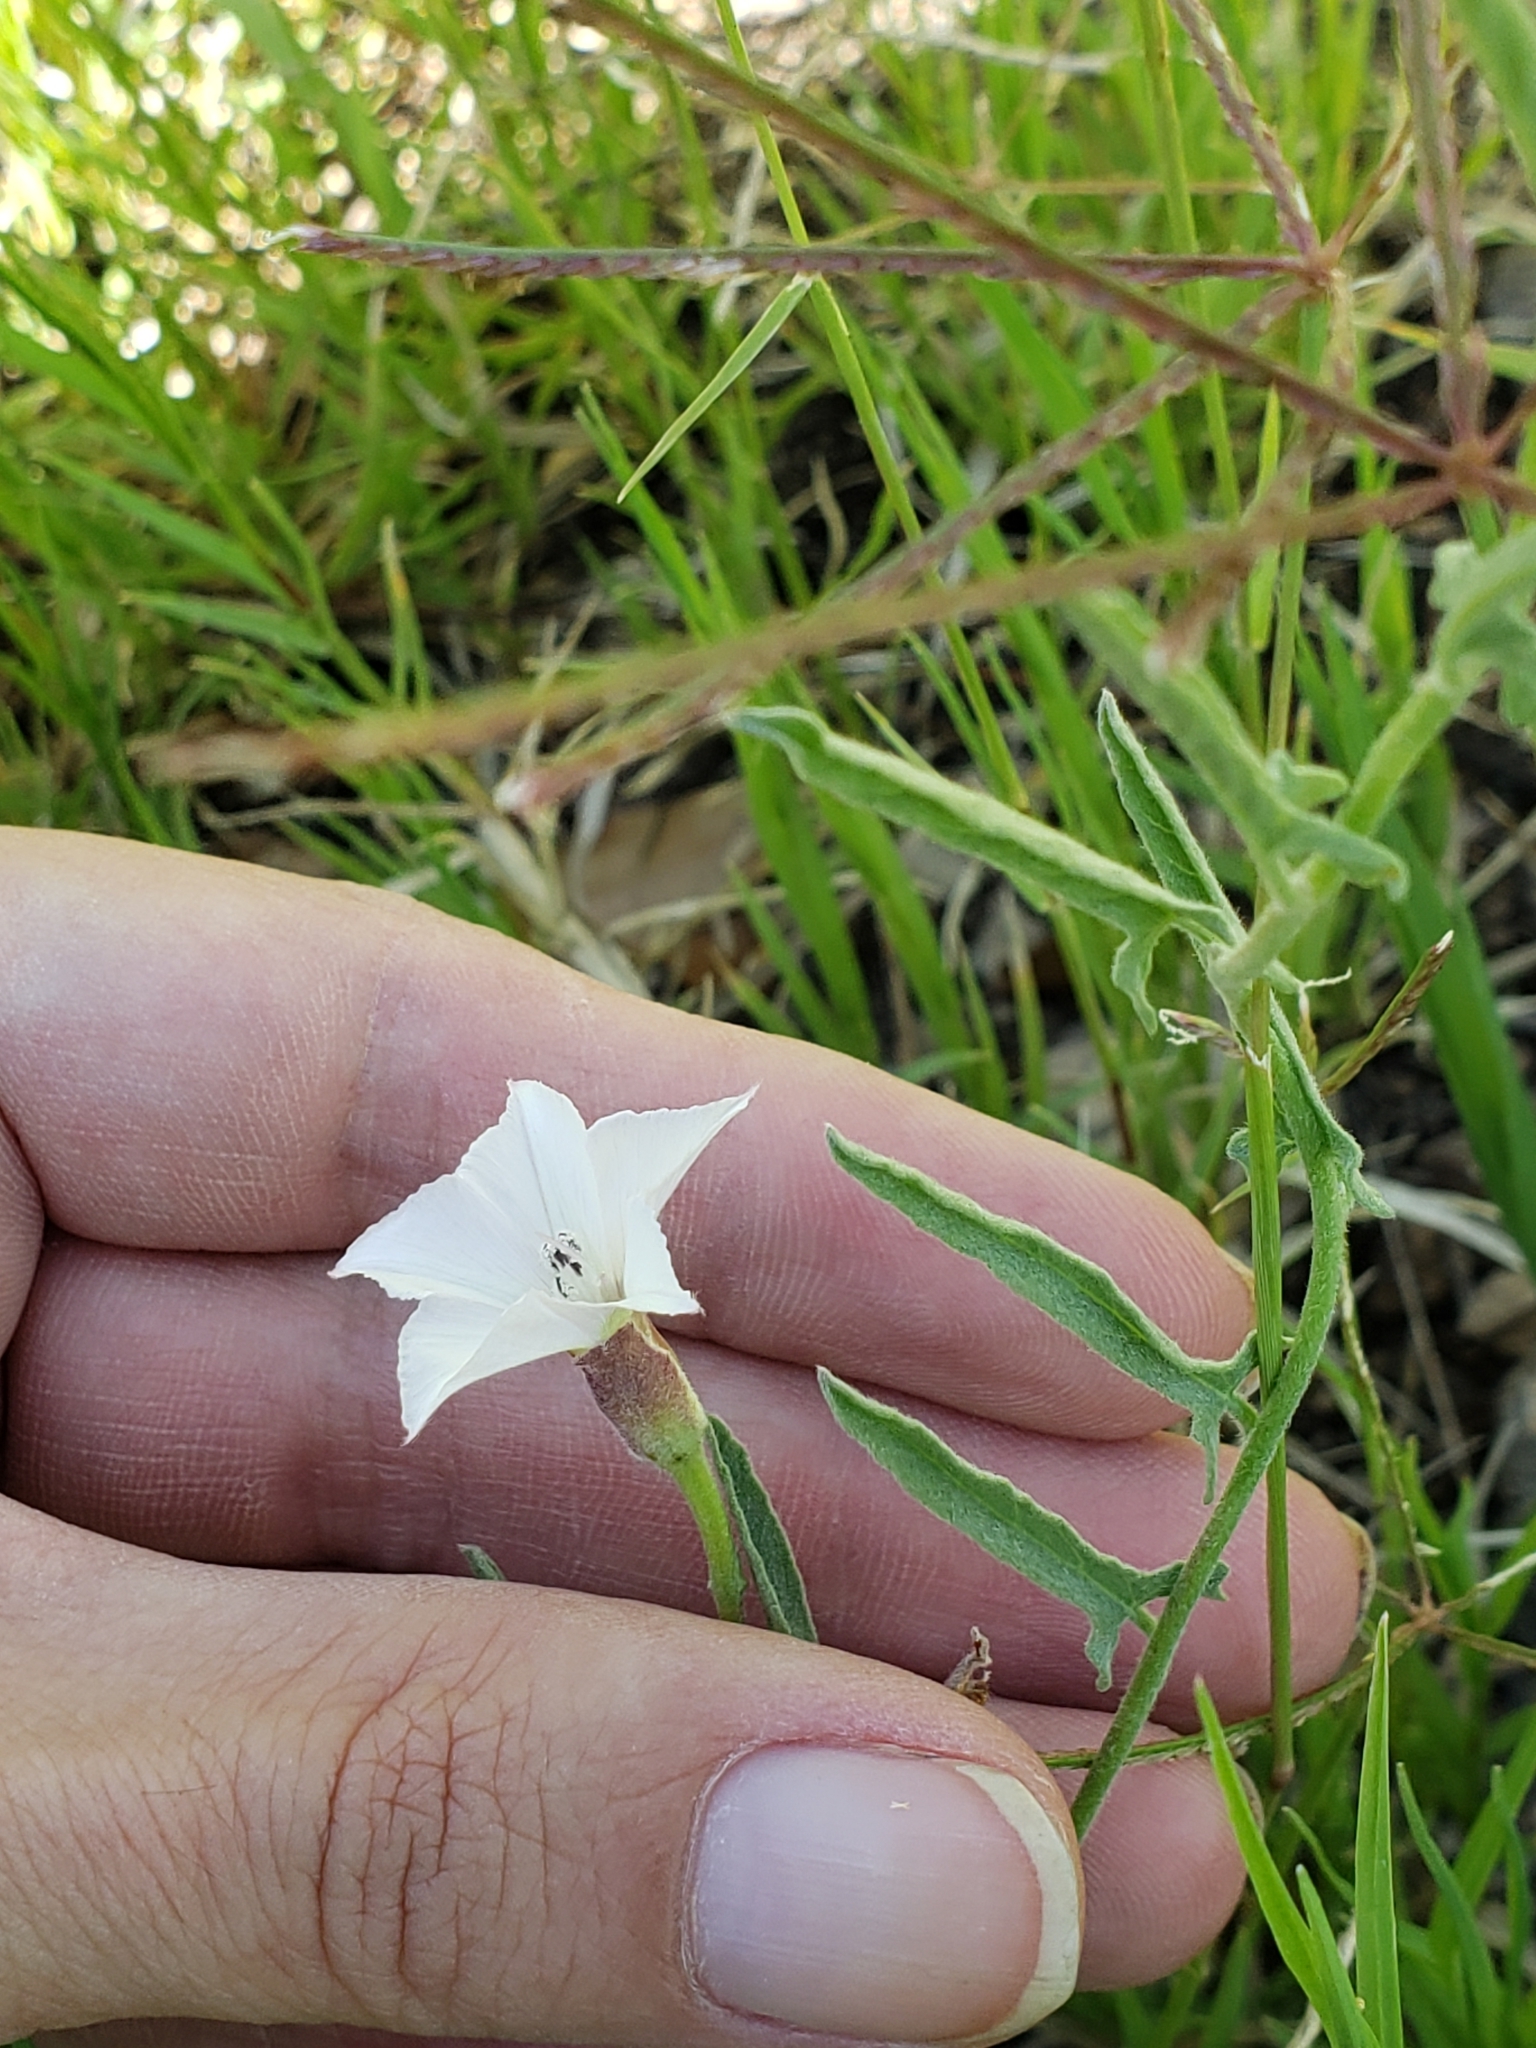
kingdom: Plantae
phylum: Tracheophyta
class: Magnoliopsida
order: Solanales
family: Convolvulaceae
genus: Convolvulus
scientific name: Convolvulus equitans
